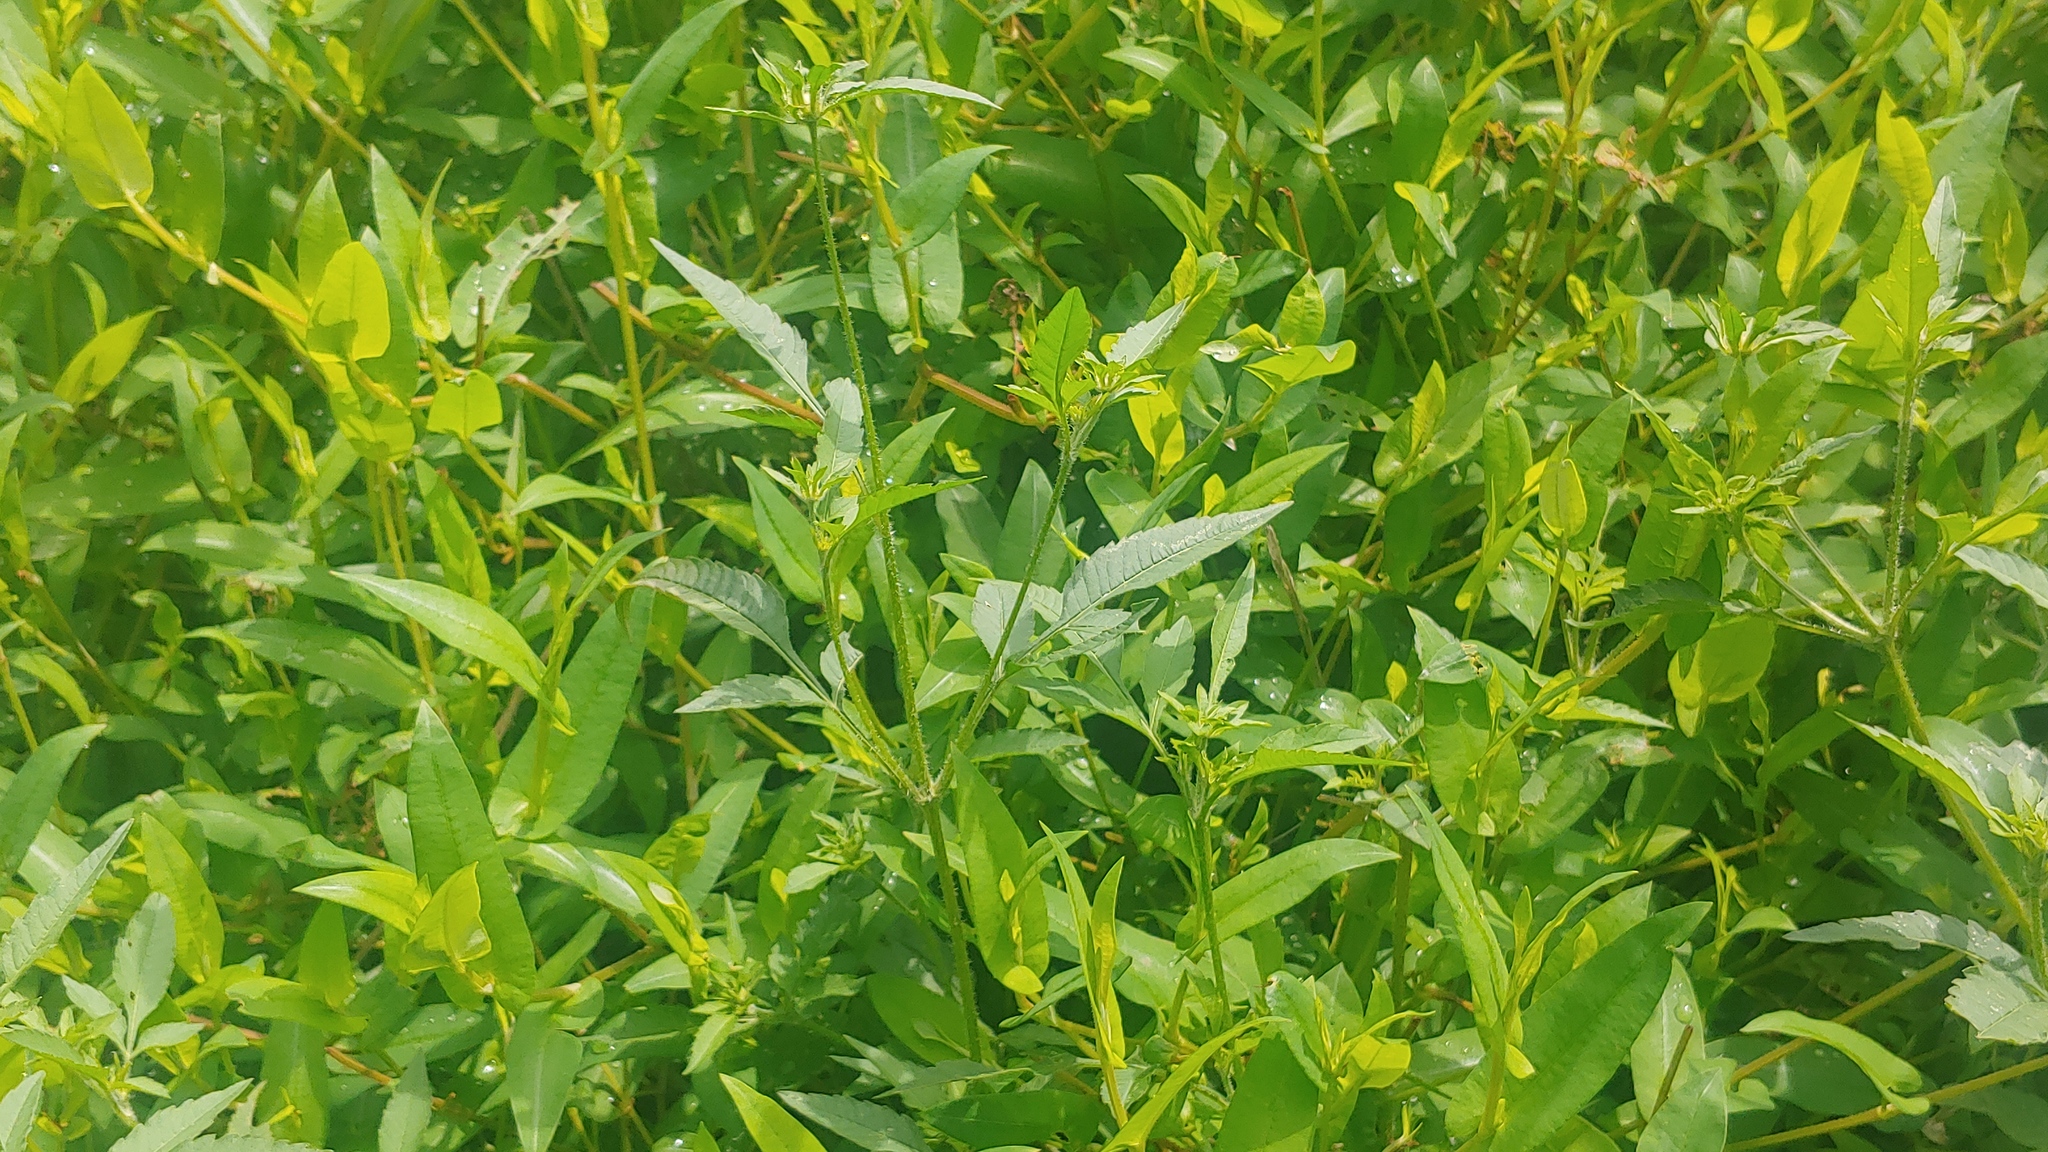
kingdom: Plantae
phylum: Tracheophyta
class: Magnoliopsida
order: Caryophyllales
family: Polygonaceae
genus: Persicaria
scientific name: Persicaria sagittata
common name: American tearthumb
